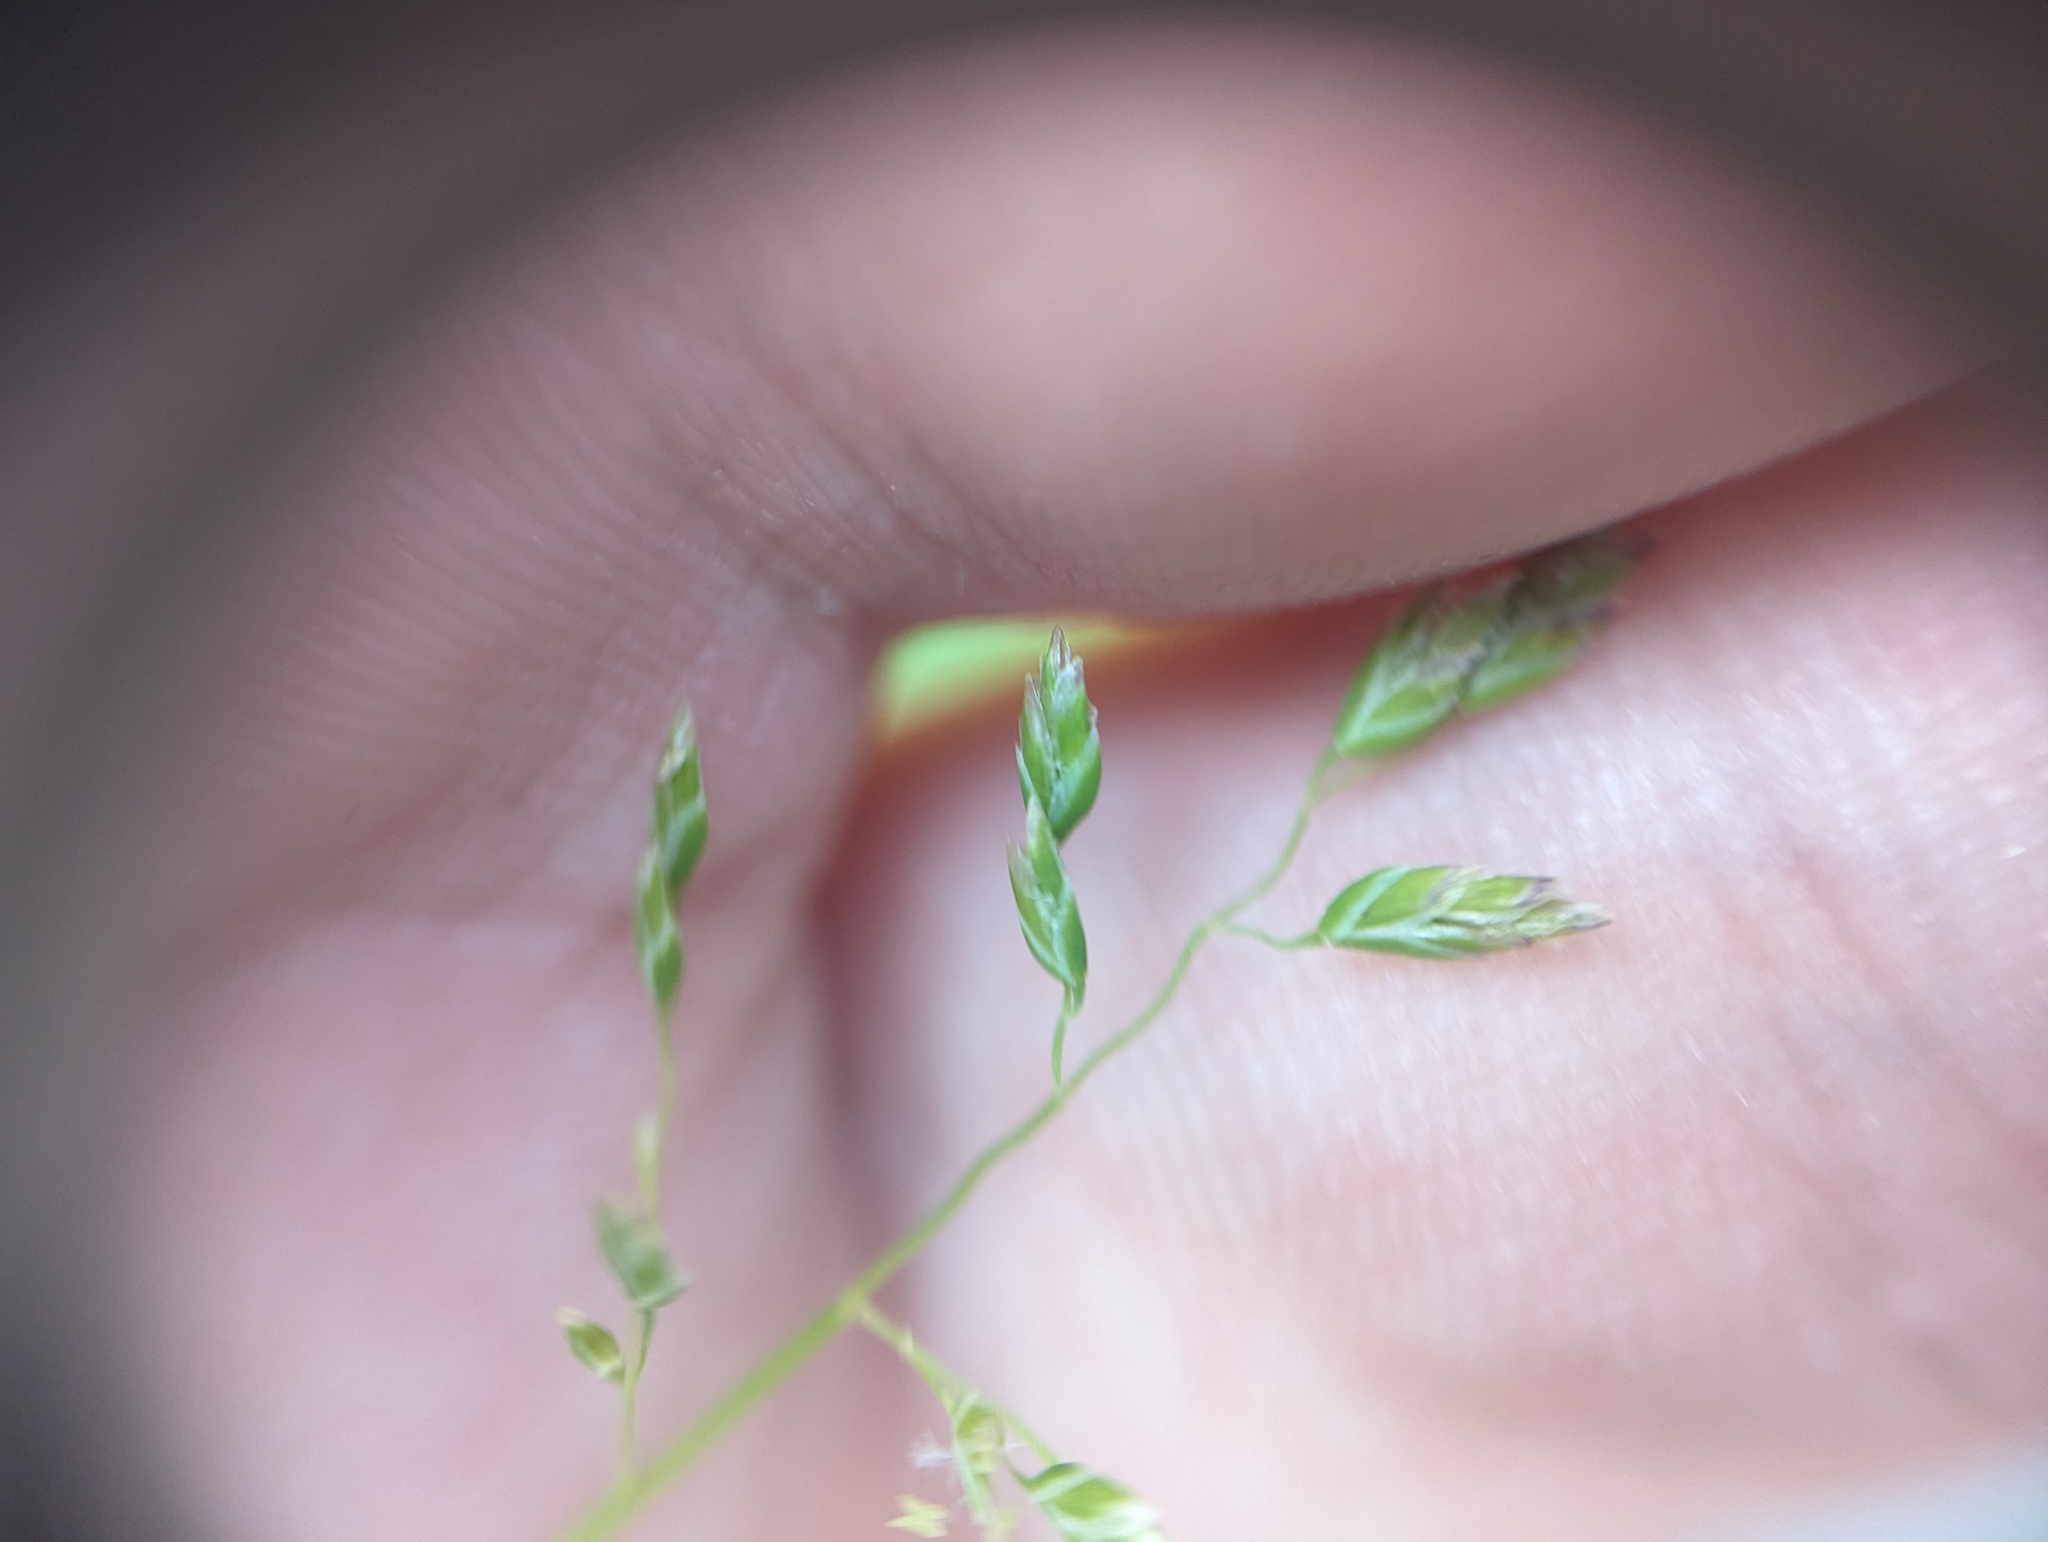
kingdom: Plantae
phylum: Tracheophyta
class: Liliopsida
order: Poales
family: Poaceae
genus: Poa
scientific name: Poa annua
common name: Annual bluegrass
